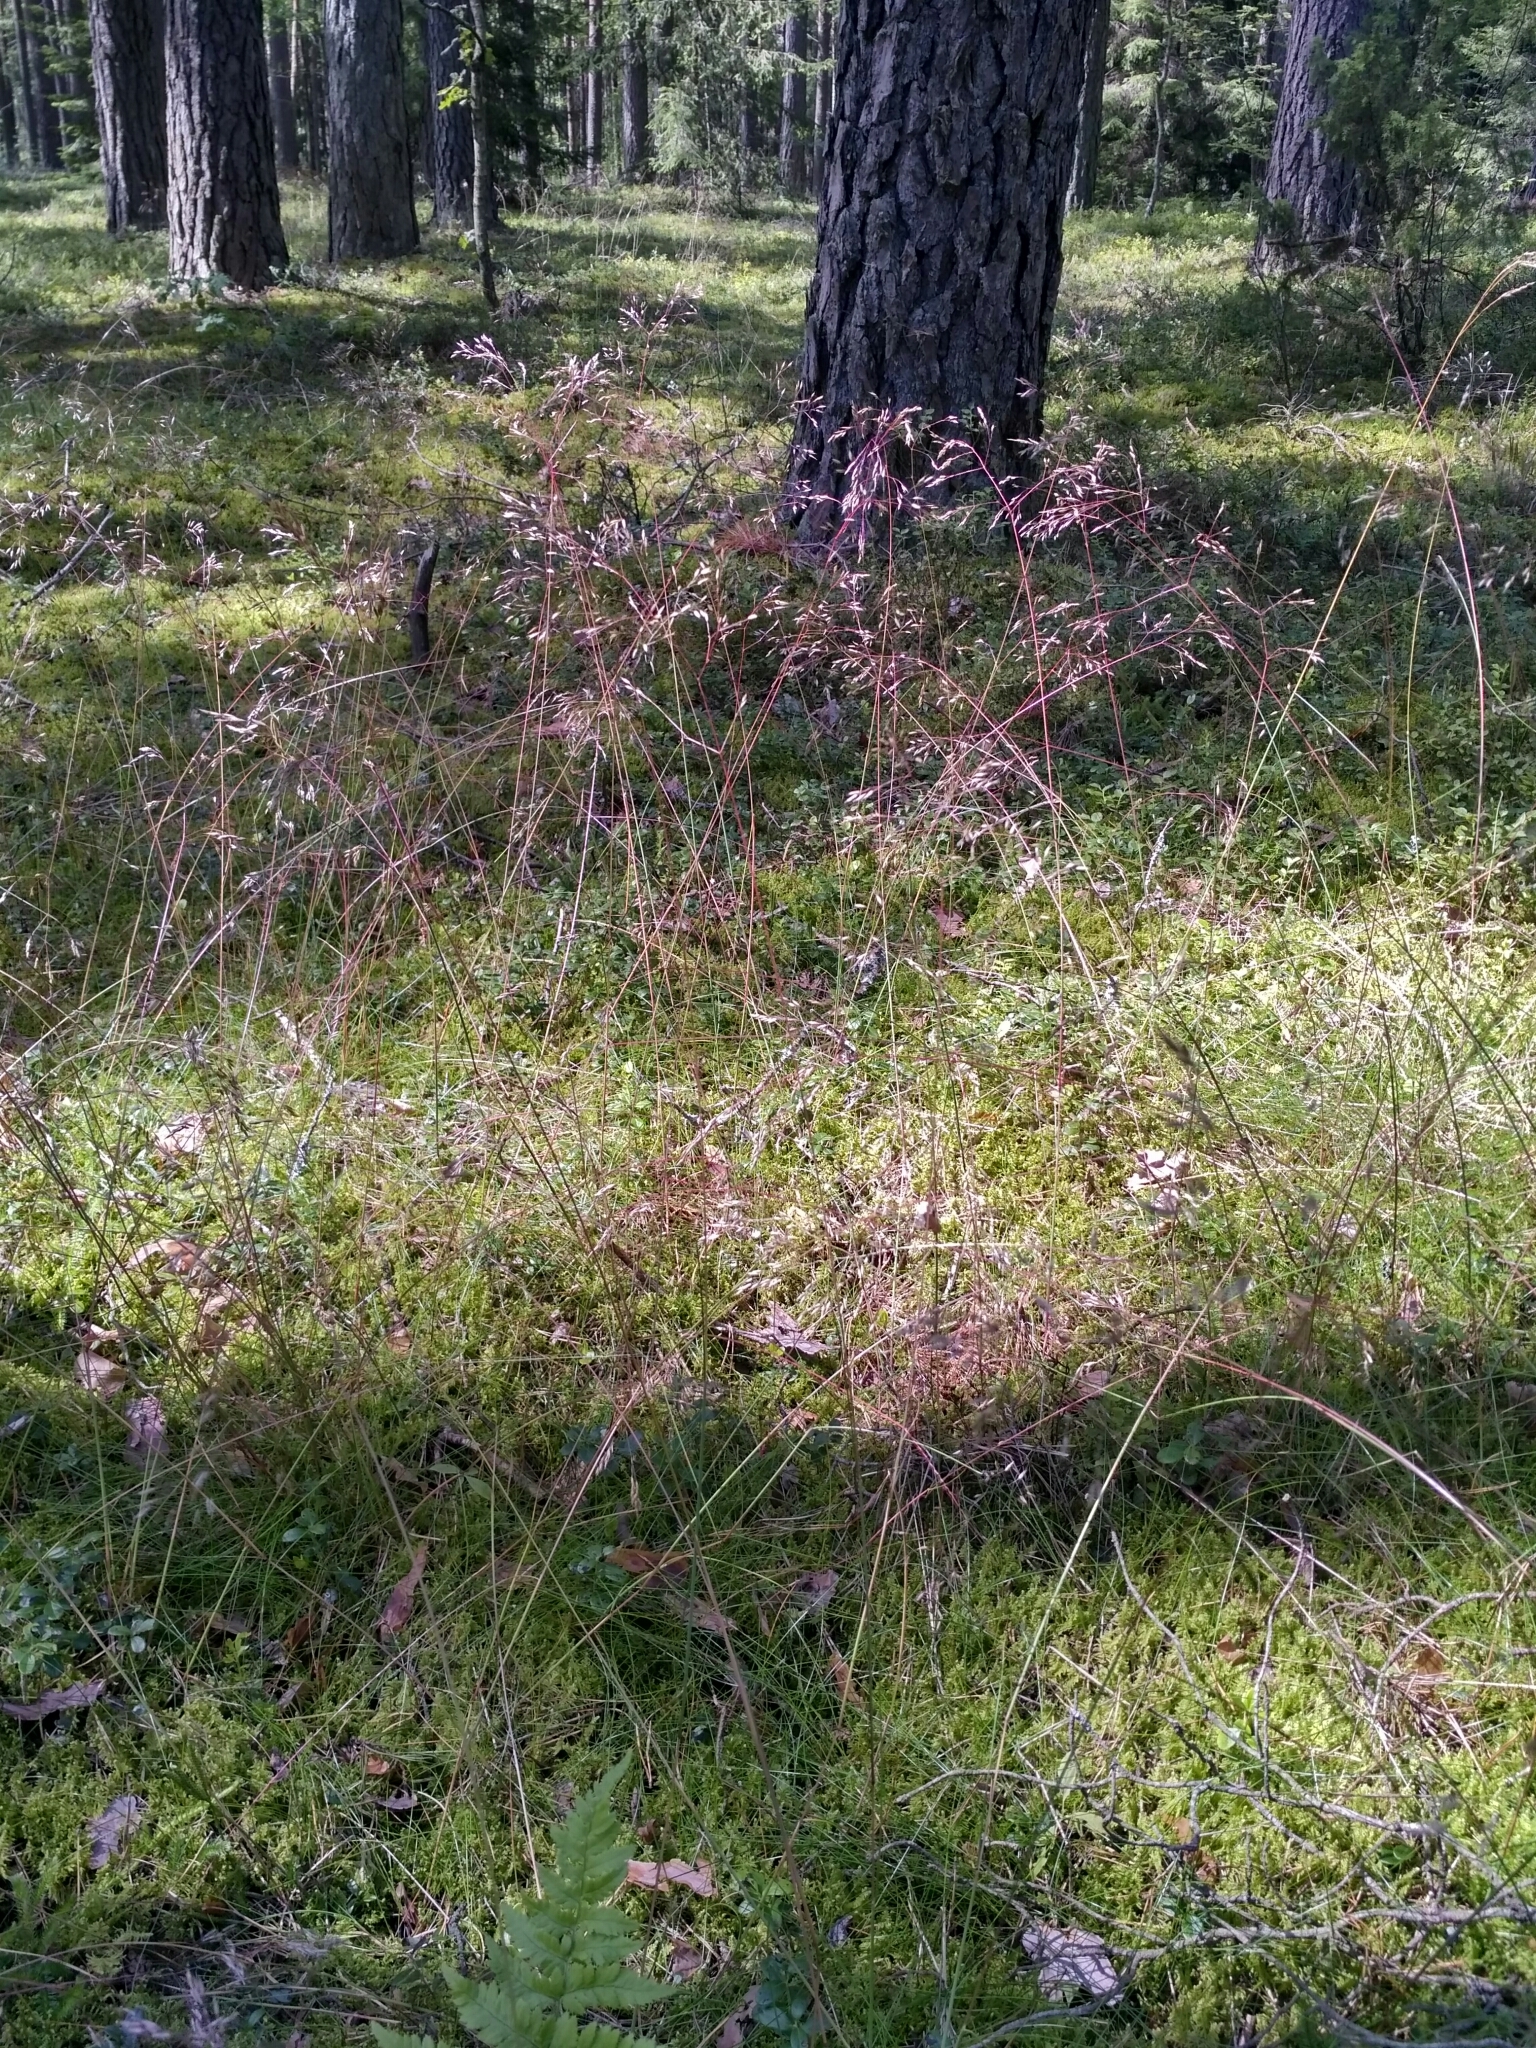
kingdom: Plantae
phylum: Tracheophyta
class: Liliopsida
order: Poales
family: Poaceae
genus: Avenella
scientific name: Avenella flexuosa
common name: Wavy hairgrass
